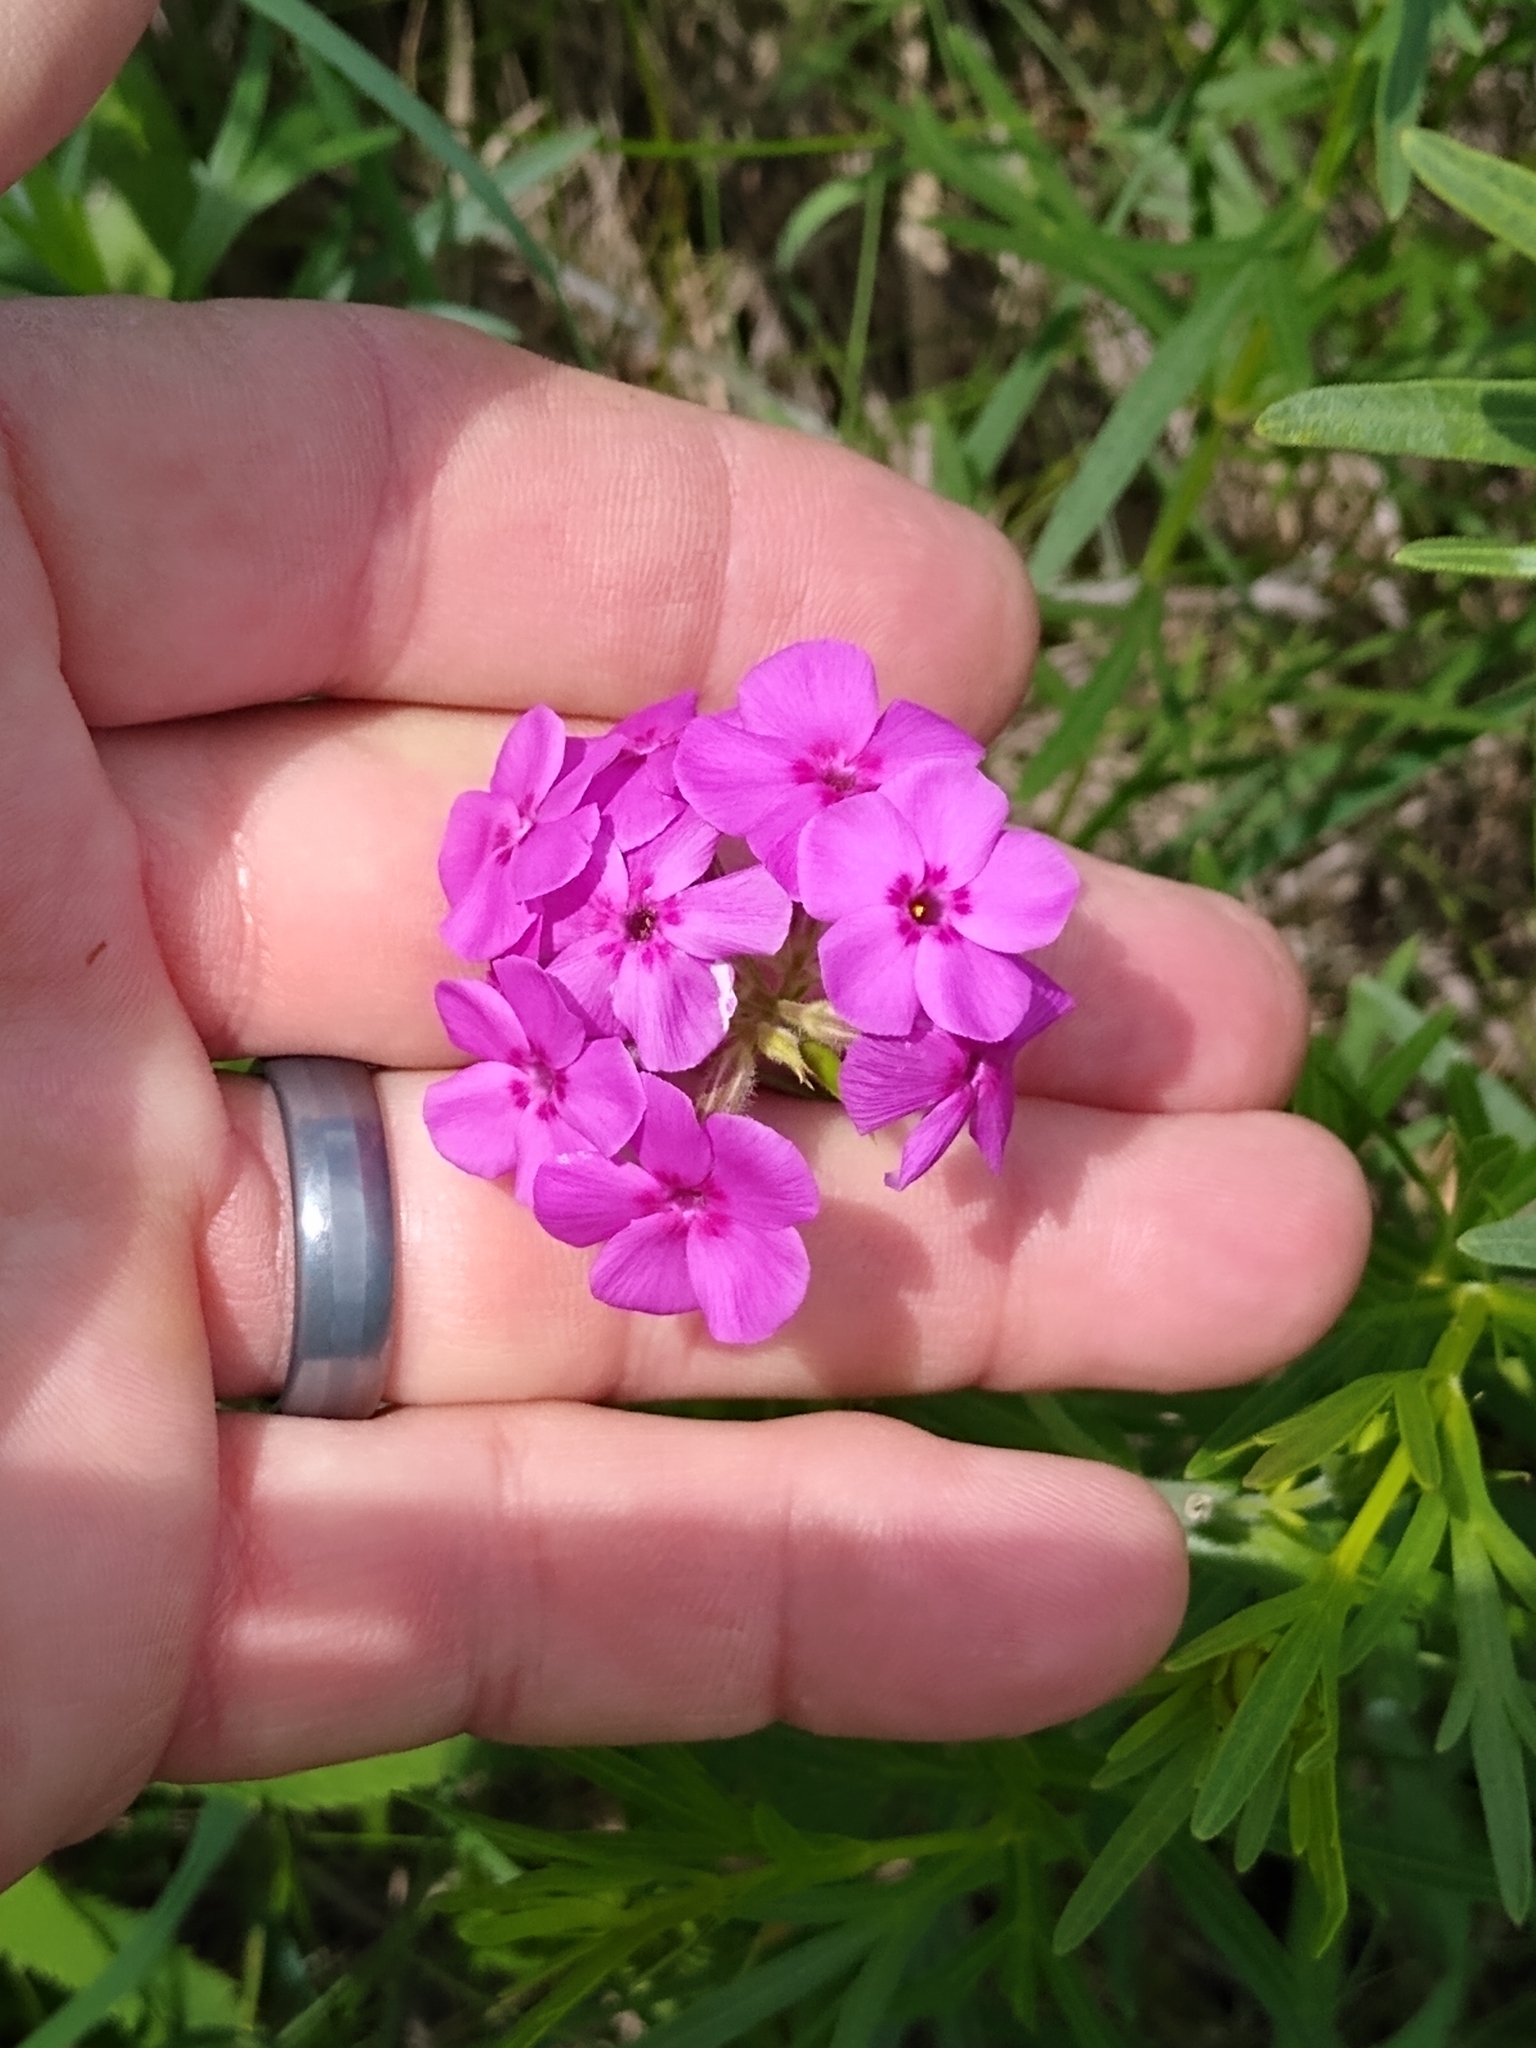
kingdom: Plantae
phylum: Tracheophyta
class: Magnoliopsida
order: Ericales
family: Polemoniaceae
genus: Phlox
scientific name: Phlox pilosa
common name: Prairie phlox
